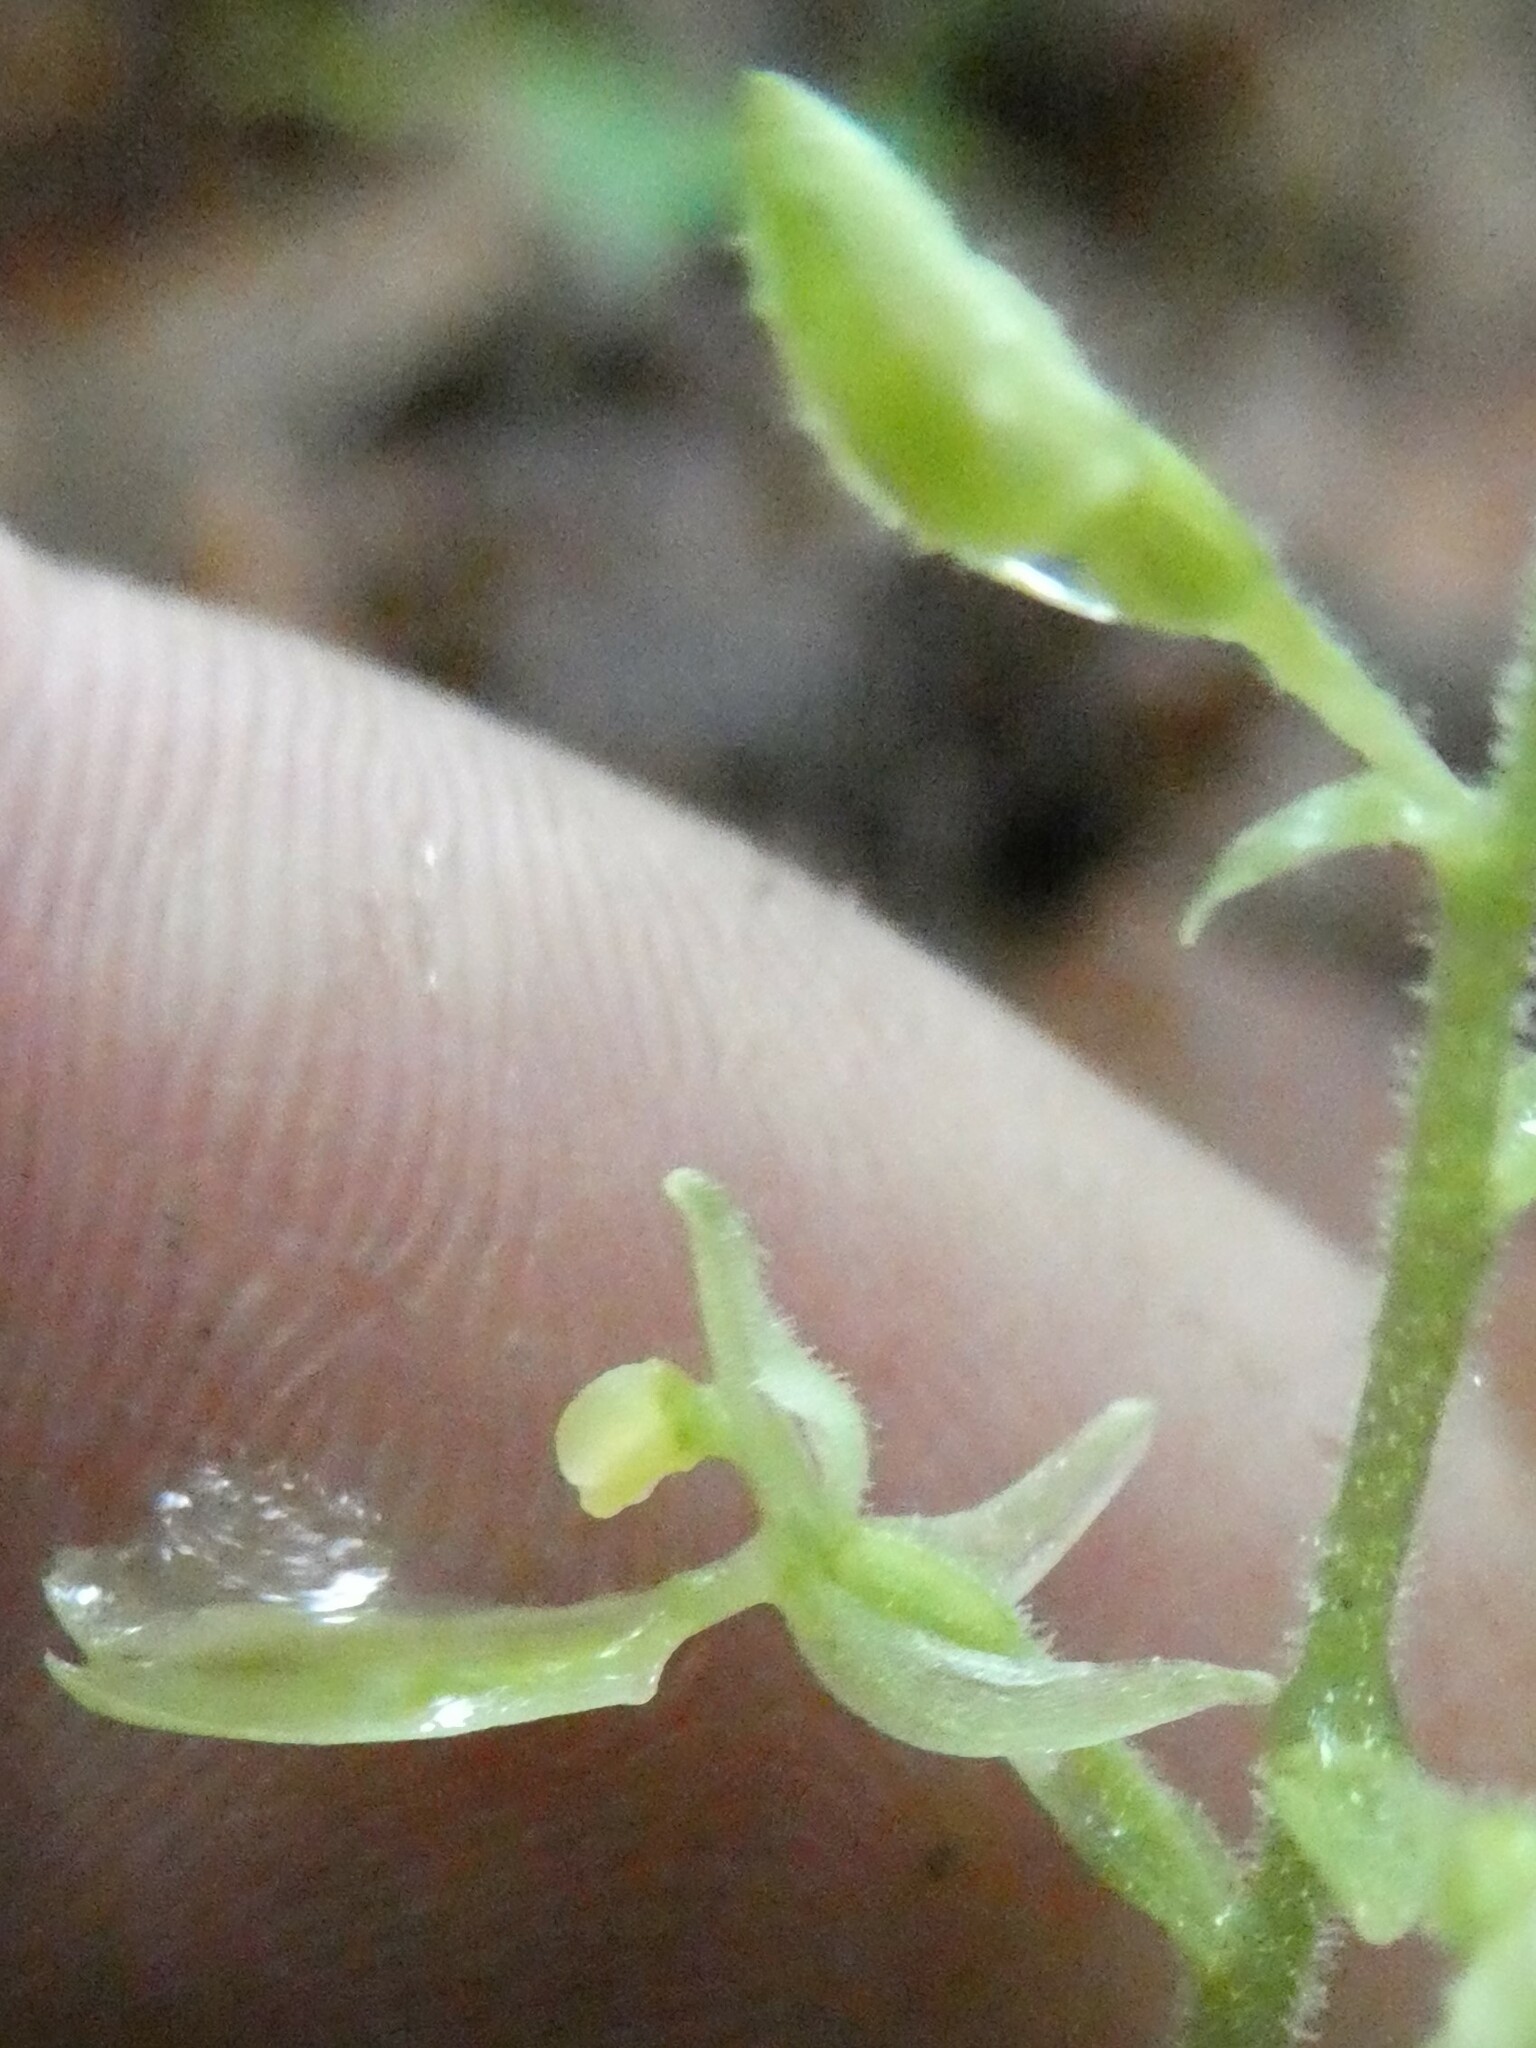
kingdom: Plantae
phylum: Tracheophyta
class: Liliopsida
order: Asparagales
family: Orchidaceae
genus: Neottia
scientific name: Neottia convallarioides
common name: Broadleaf twayblade
